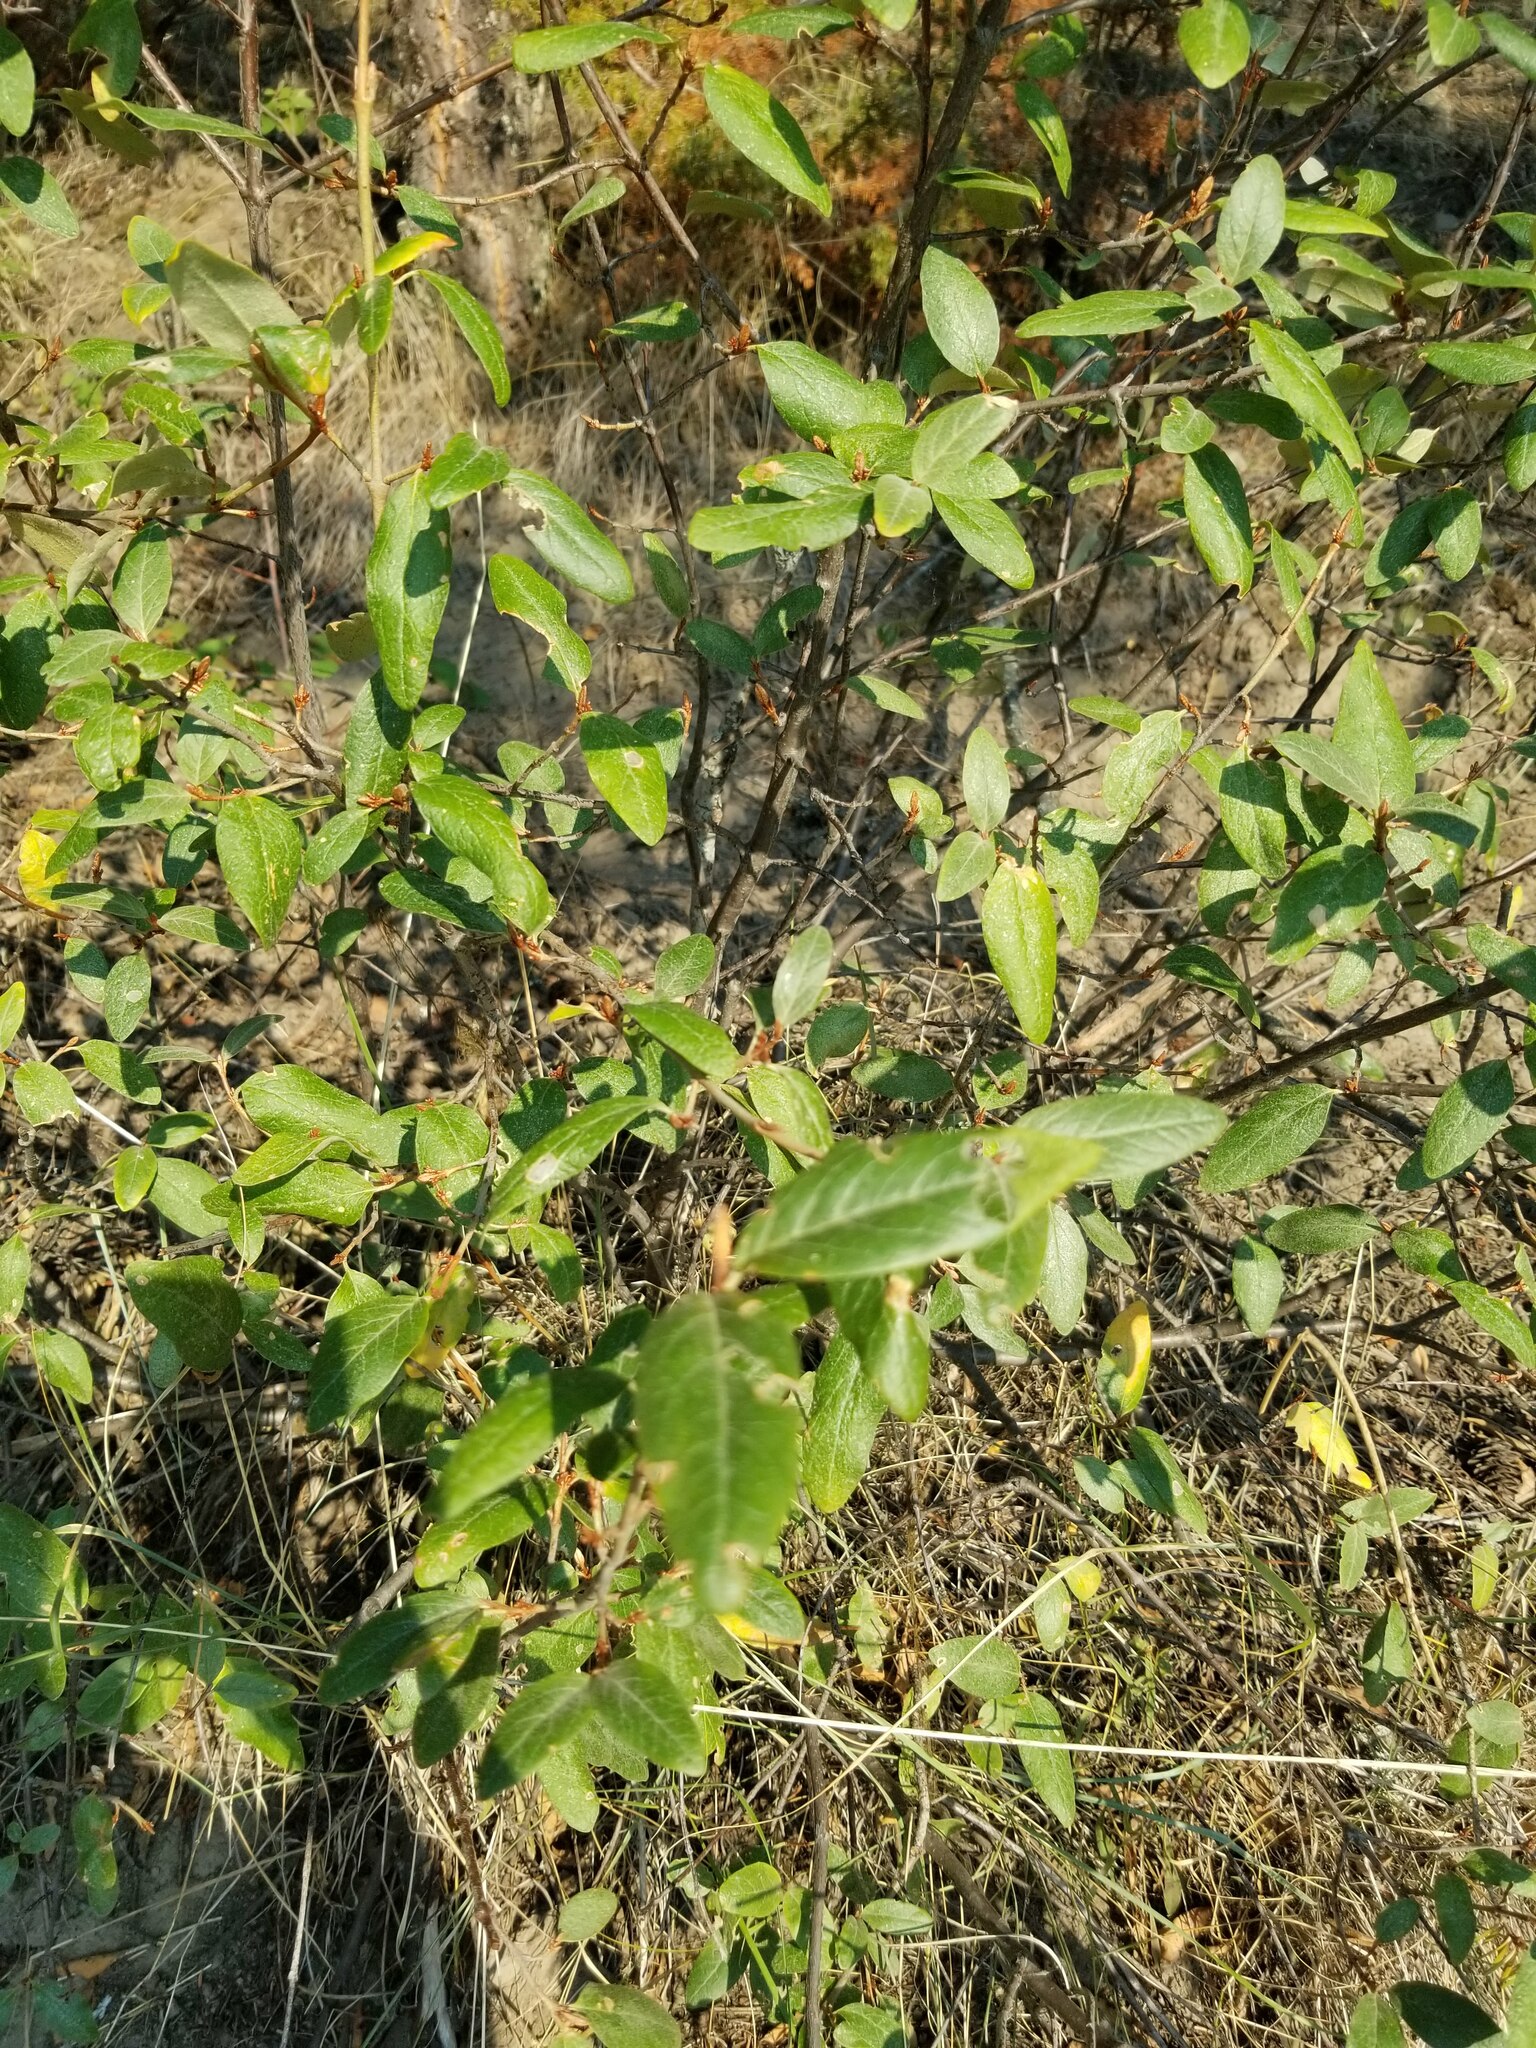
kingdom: Plantae
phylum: Tracheophyta
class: Magnoliopsida
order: Rosales
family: Elaeagnaceae
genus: Shepherdia
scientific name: Shepherdia canadensis
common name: Soapberry
